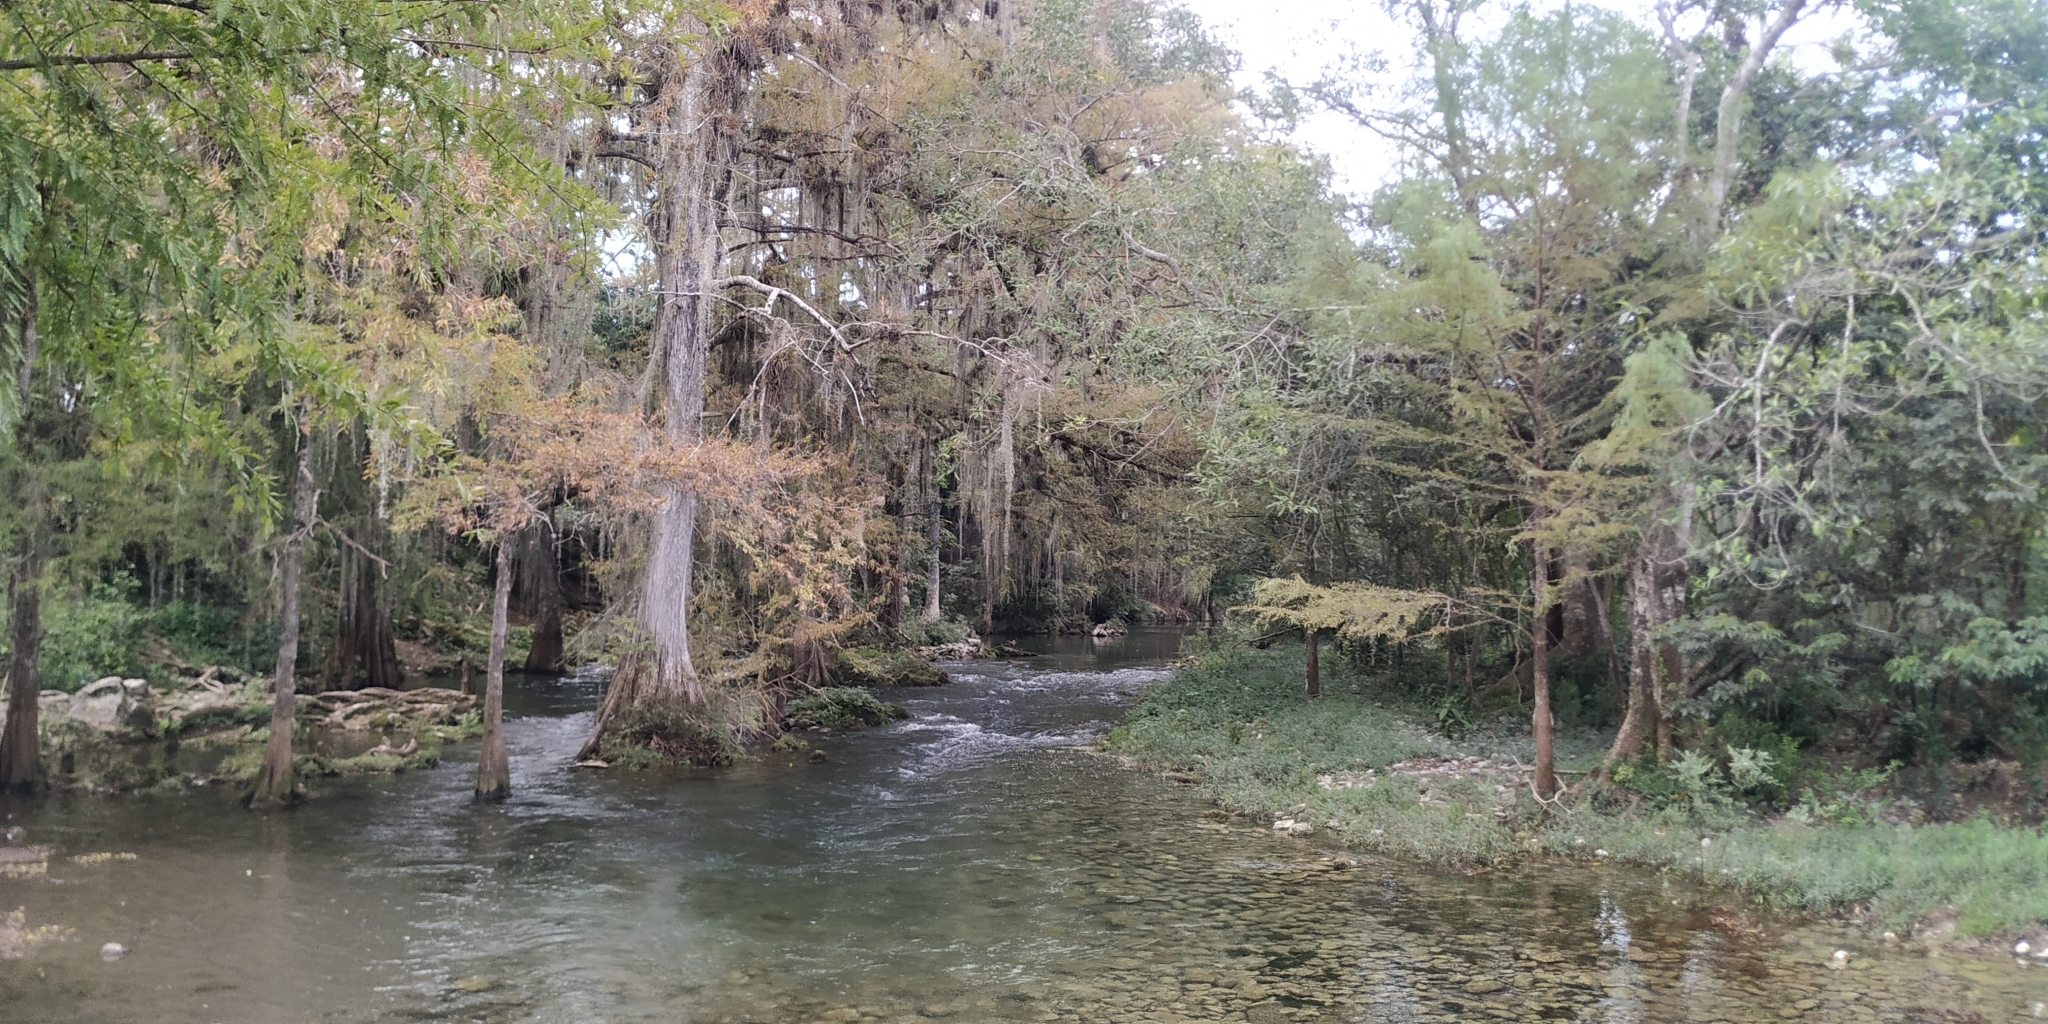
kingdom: Plantae
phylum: Tracheophyta
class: Pinopsida
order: Pinales
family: Cupressaceae
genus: Taxodium
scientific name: Taxodium mucronatum
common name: Montezume bald cypress
